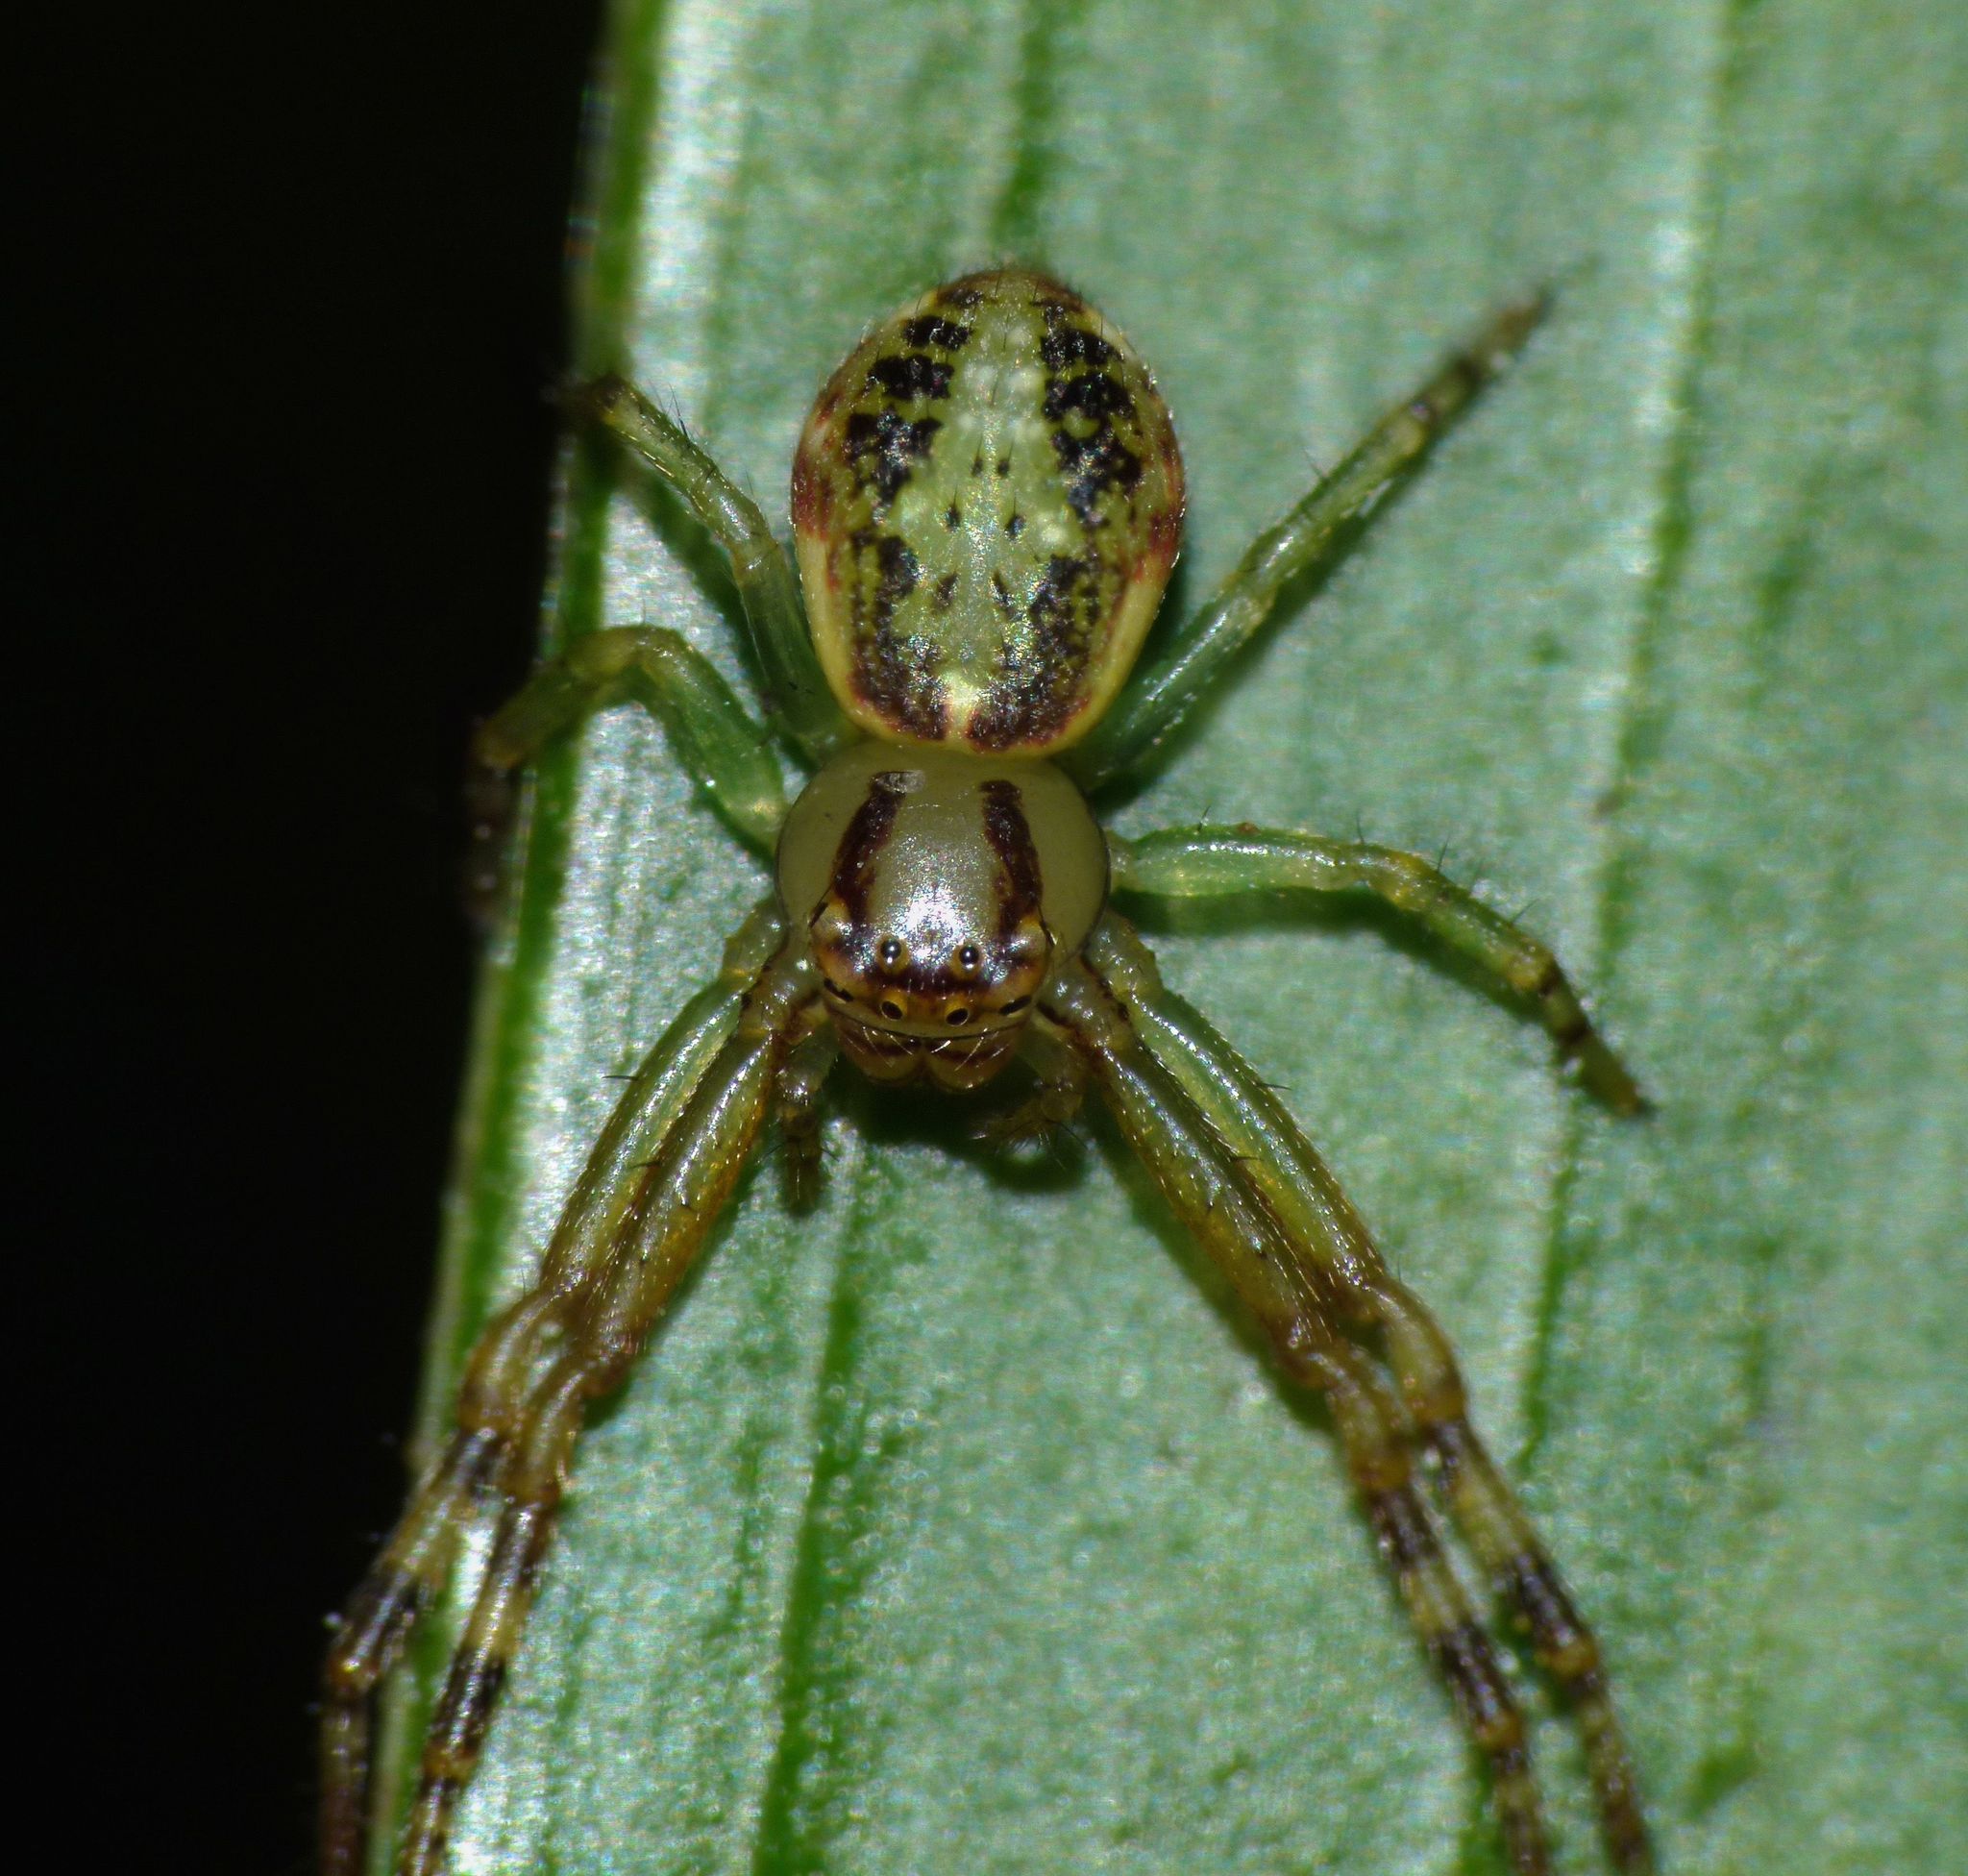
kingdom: Animalia
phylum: Arthropoda
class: Arachnida
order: Araneae
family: Thomisidae
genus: Diaea
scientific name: Diaea ambara
